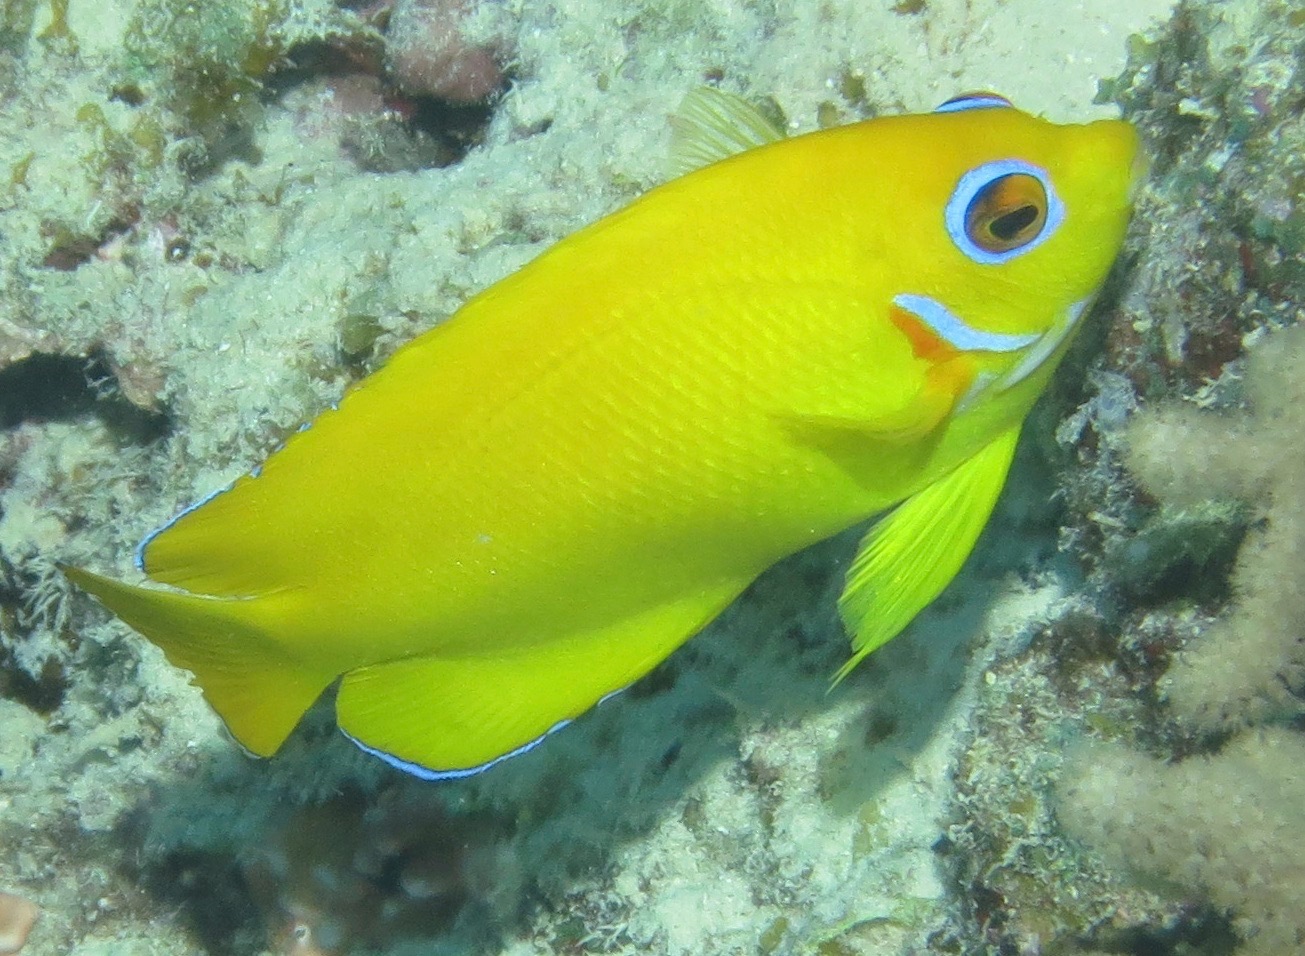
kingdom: Animalia
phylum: Chordata
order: Perciformes
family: Pomacanthidae
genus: Centropyge
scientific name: Centropyge flavissima
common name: Lemonpeel angelfish
